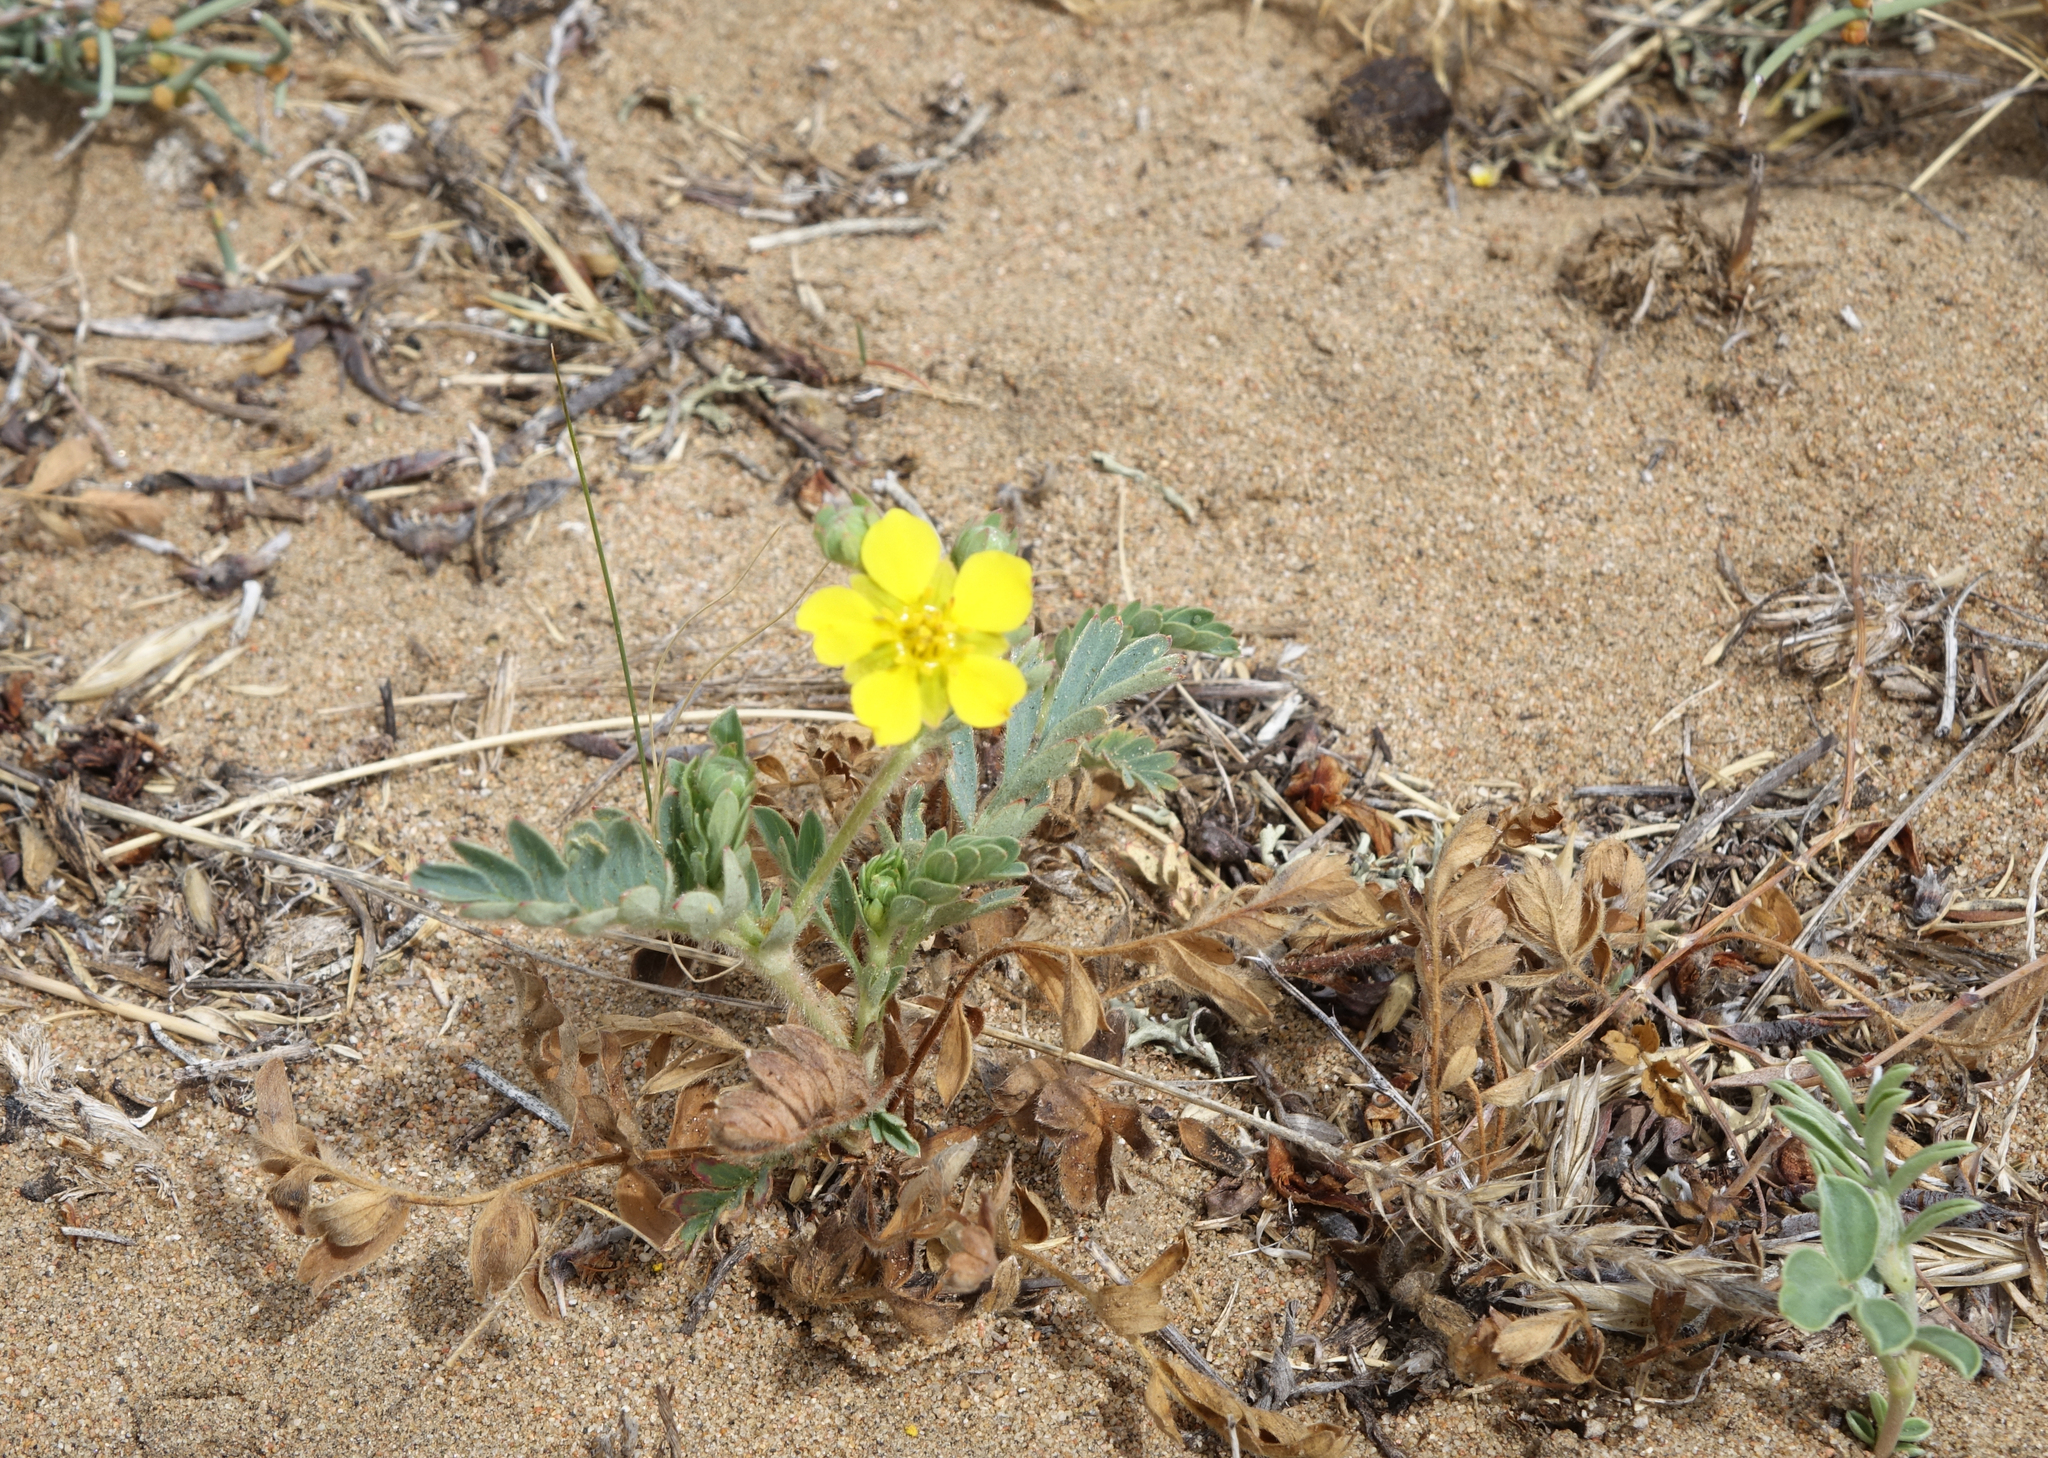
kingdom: Plantae
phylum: Tracheophyta
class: Magnoliopsida
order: Rosales
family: Rosaceae
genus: Sibbaldianthe
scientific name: Sibbaldianthe bifurca
